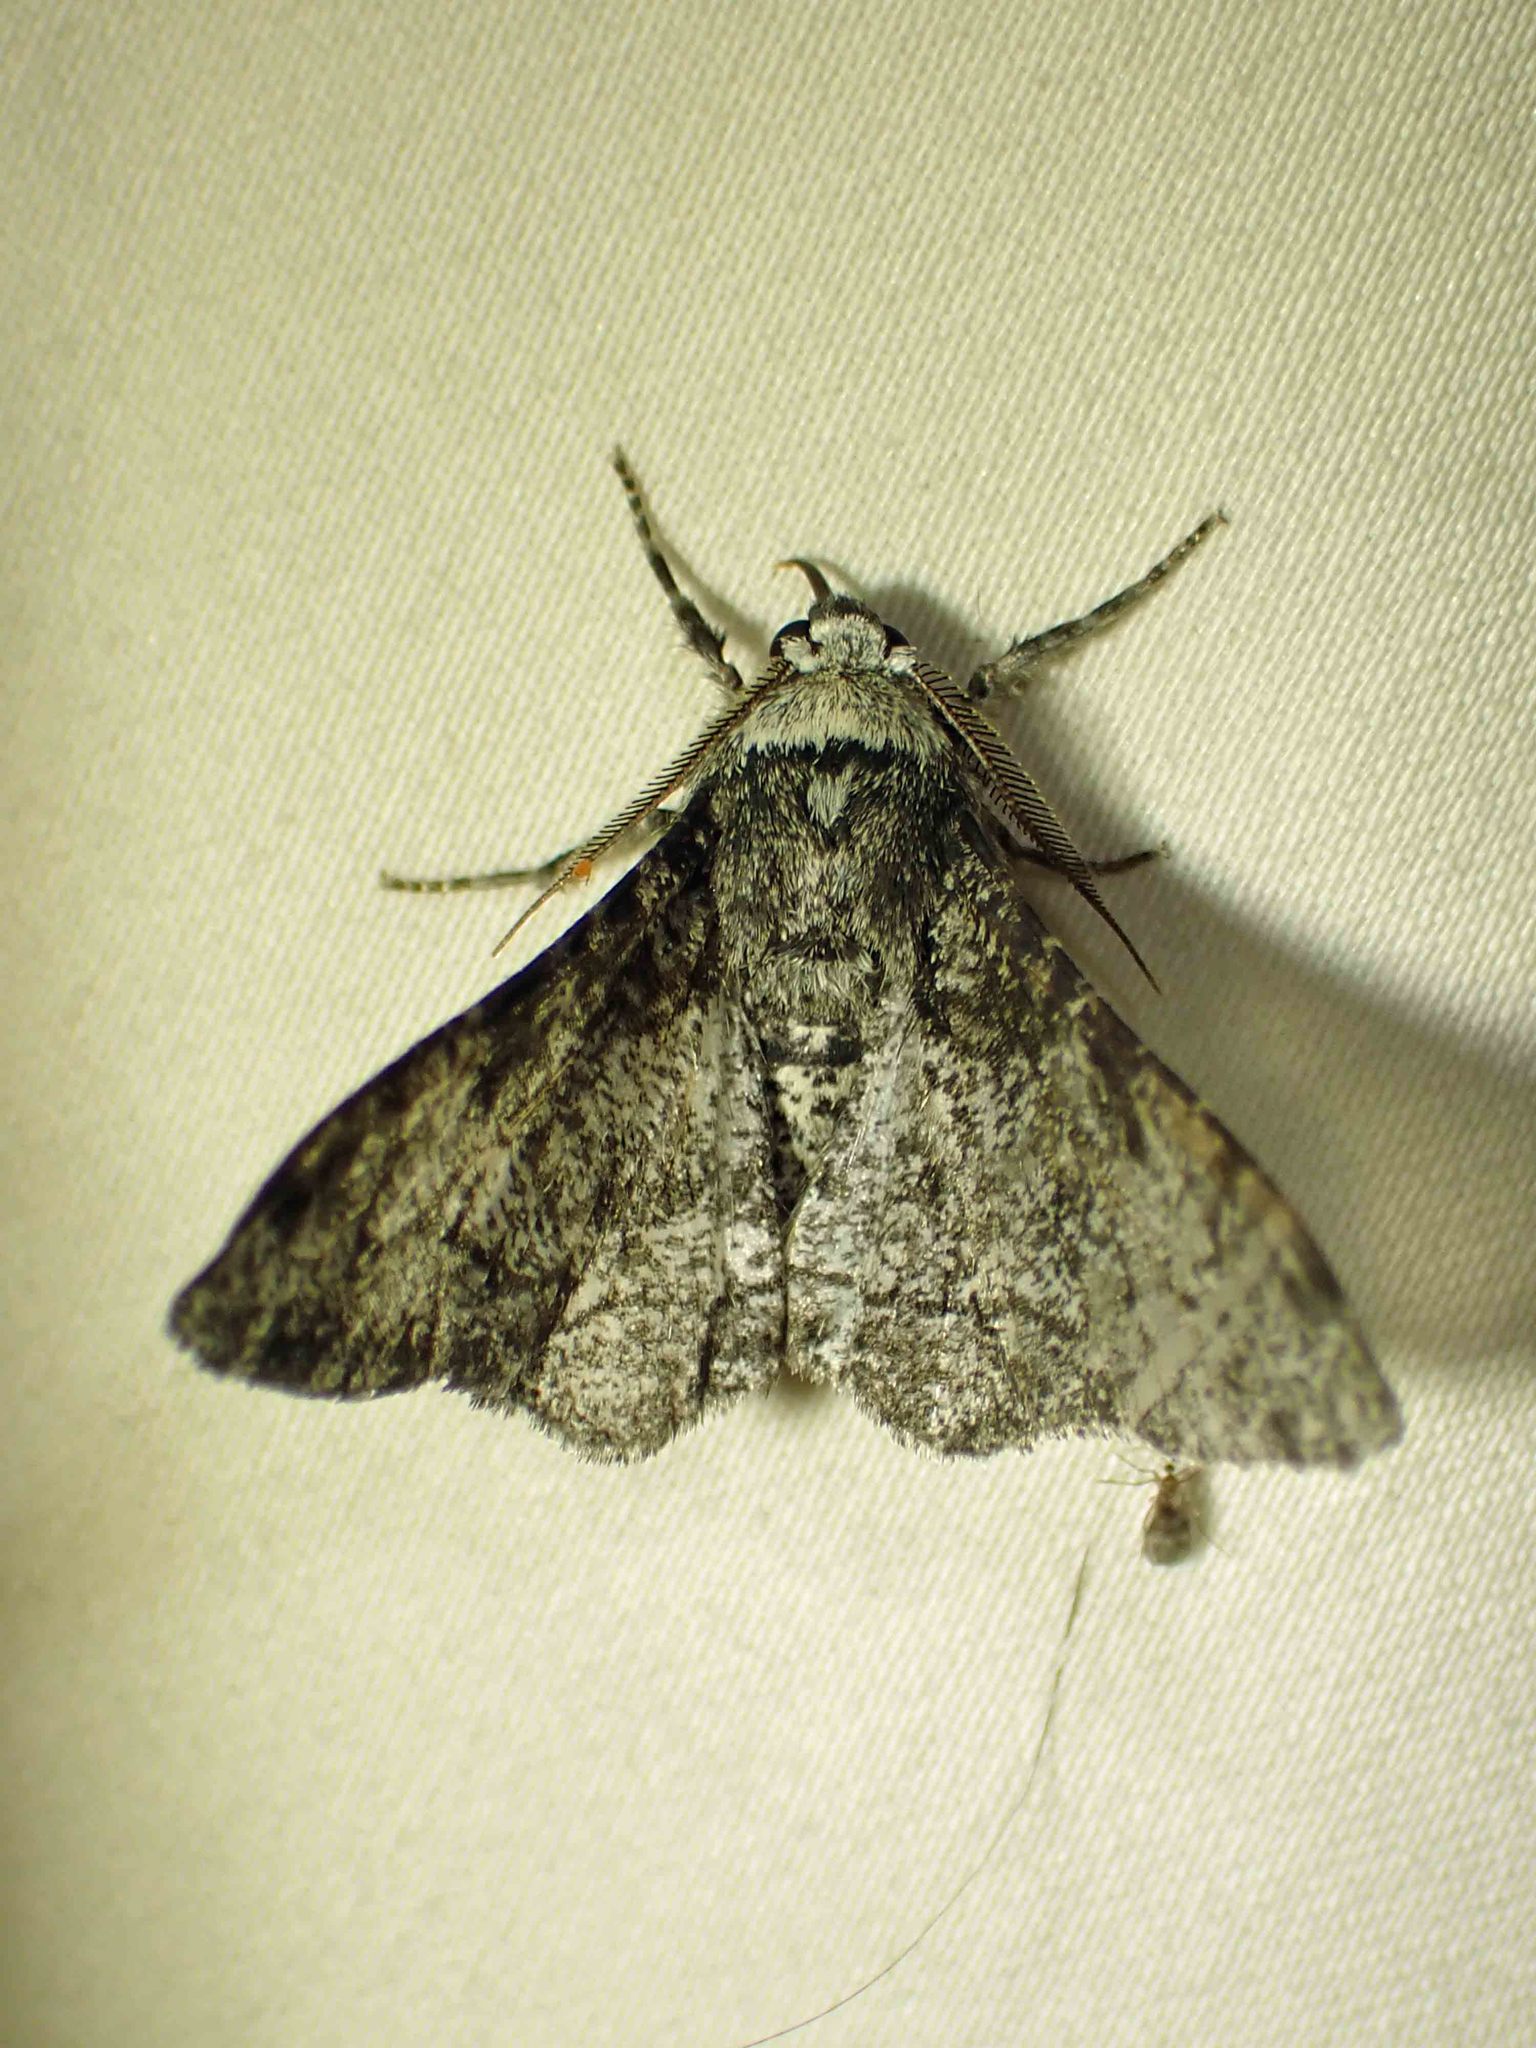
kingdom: Animalia
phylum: Arthropoda
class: Insecta
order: Lepidoptera
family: Geometridae
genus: Biston
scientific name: Biston betularia
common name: Peppered moth
